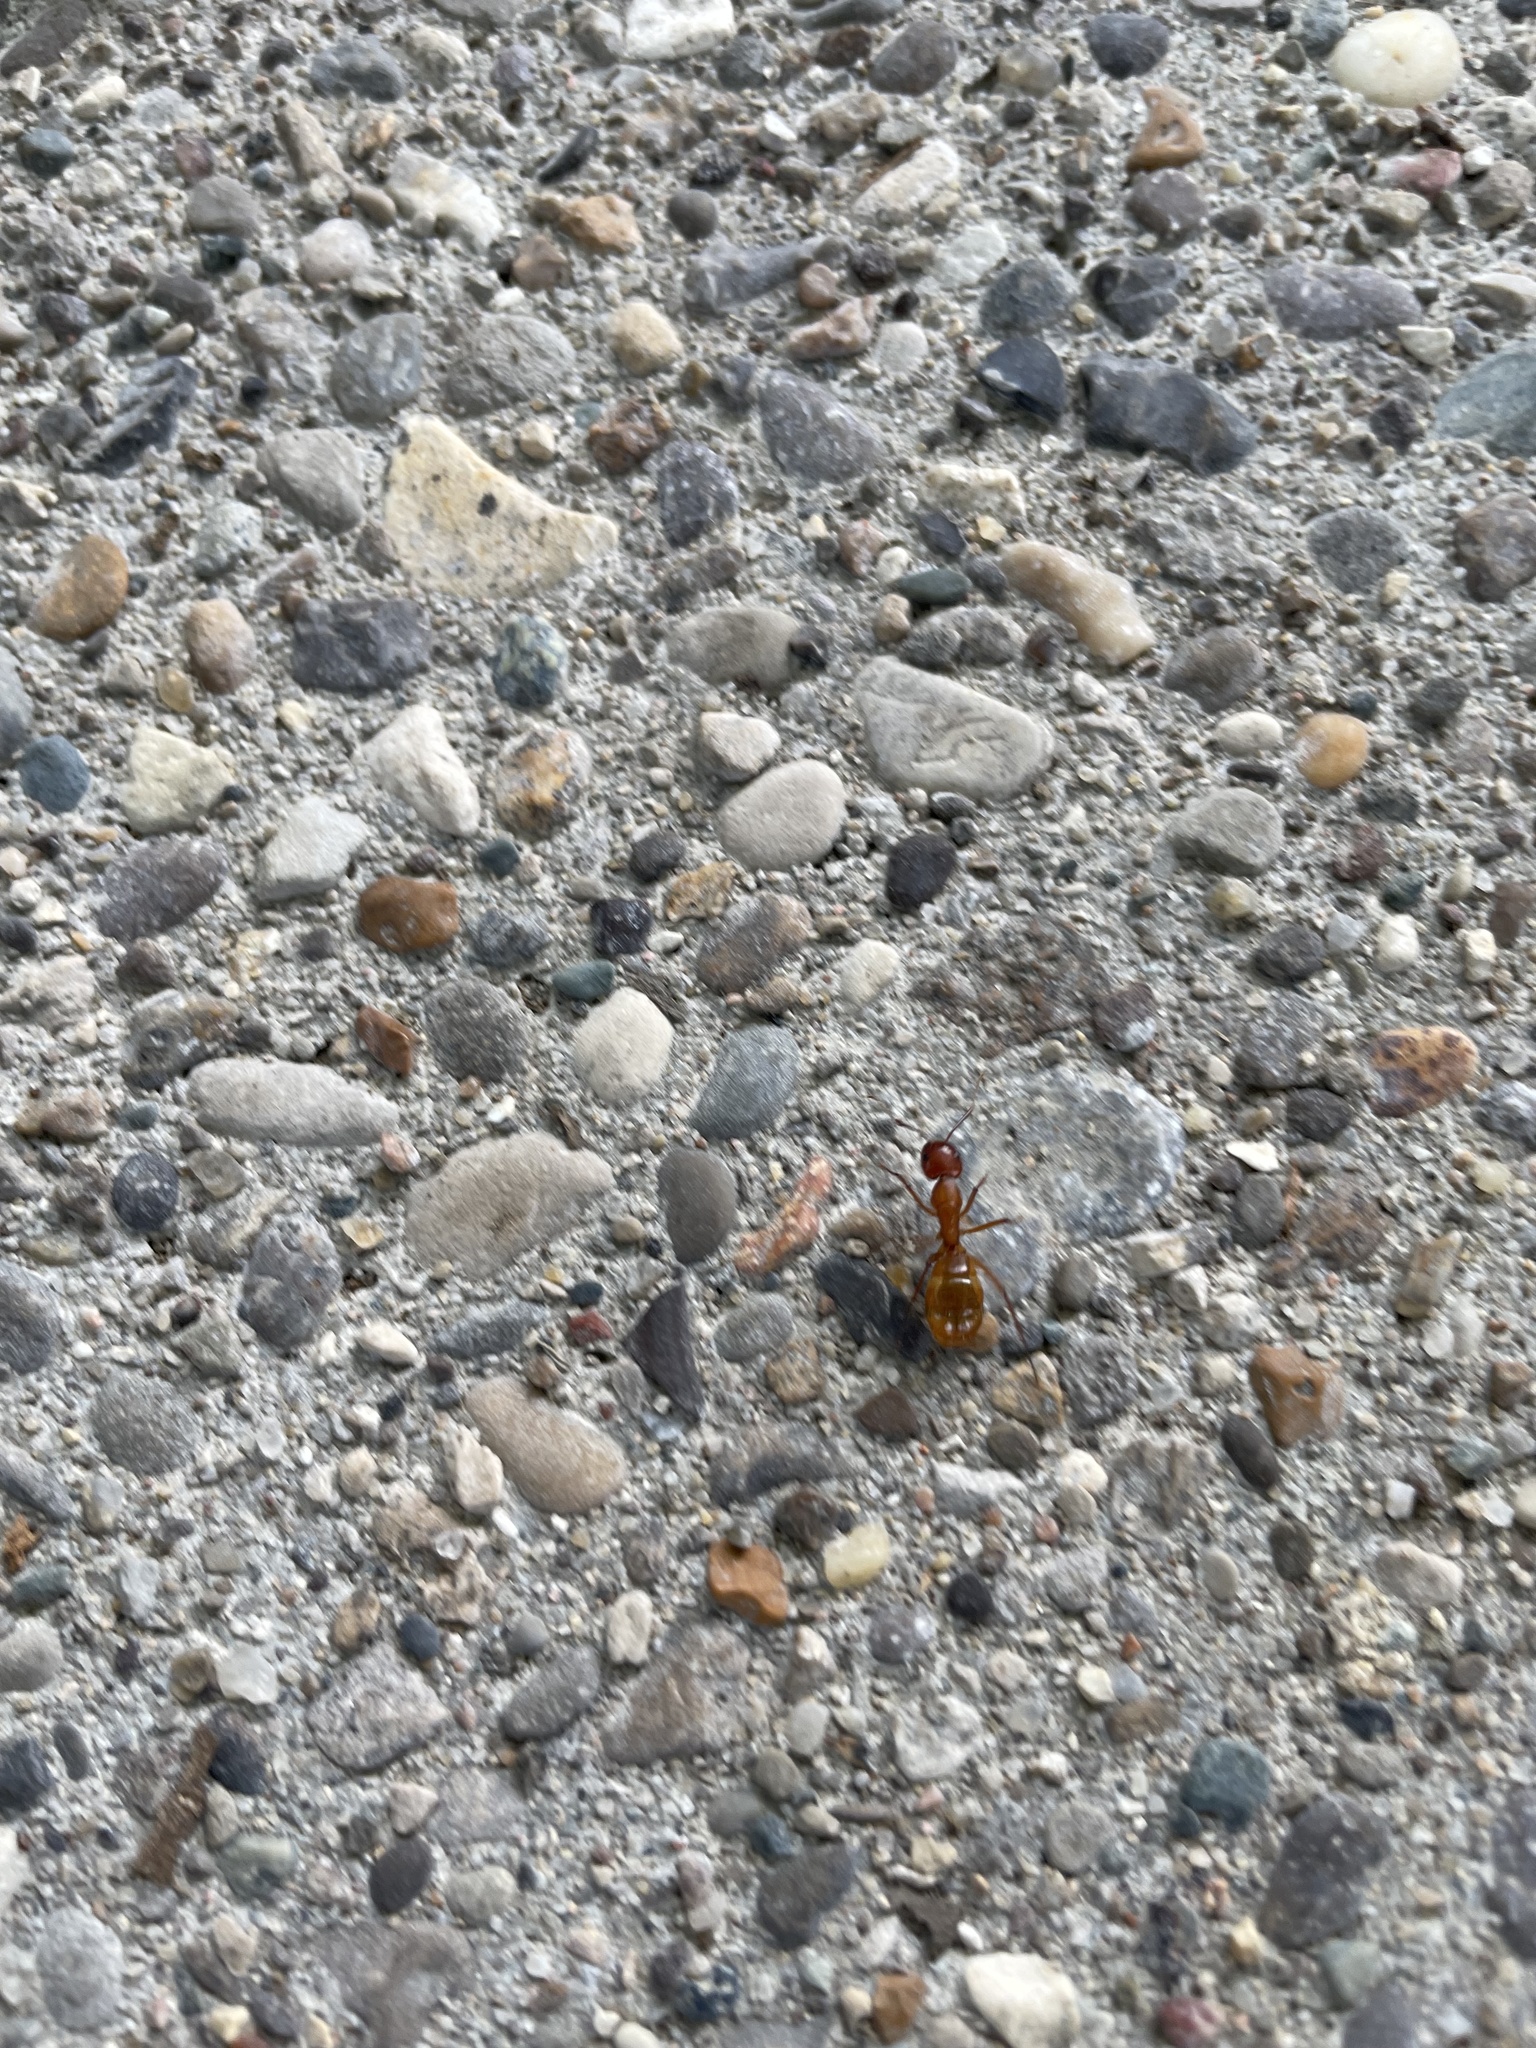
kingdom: Animalia
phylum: Arthropoda
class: Insecta
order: Hymenoptera
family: Formicidae
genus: Camponotus
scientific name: Camponotus castaneus
